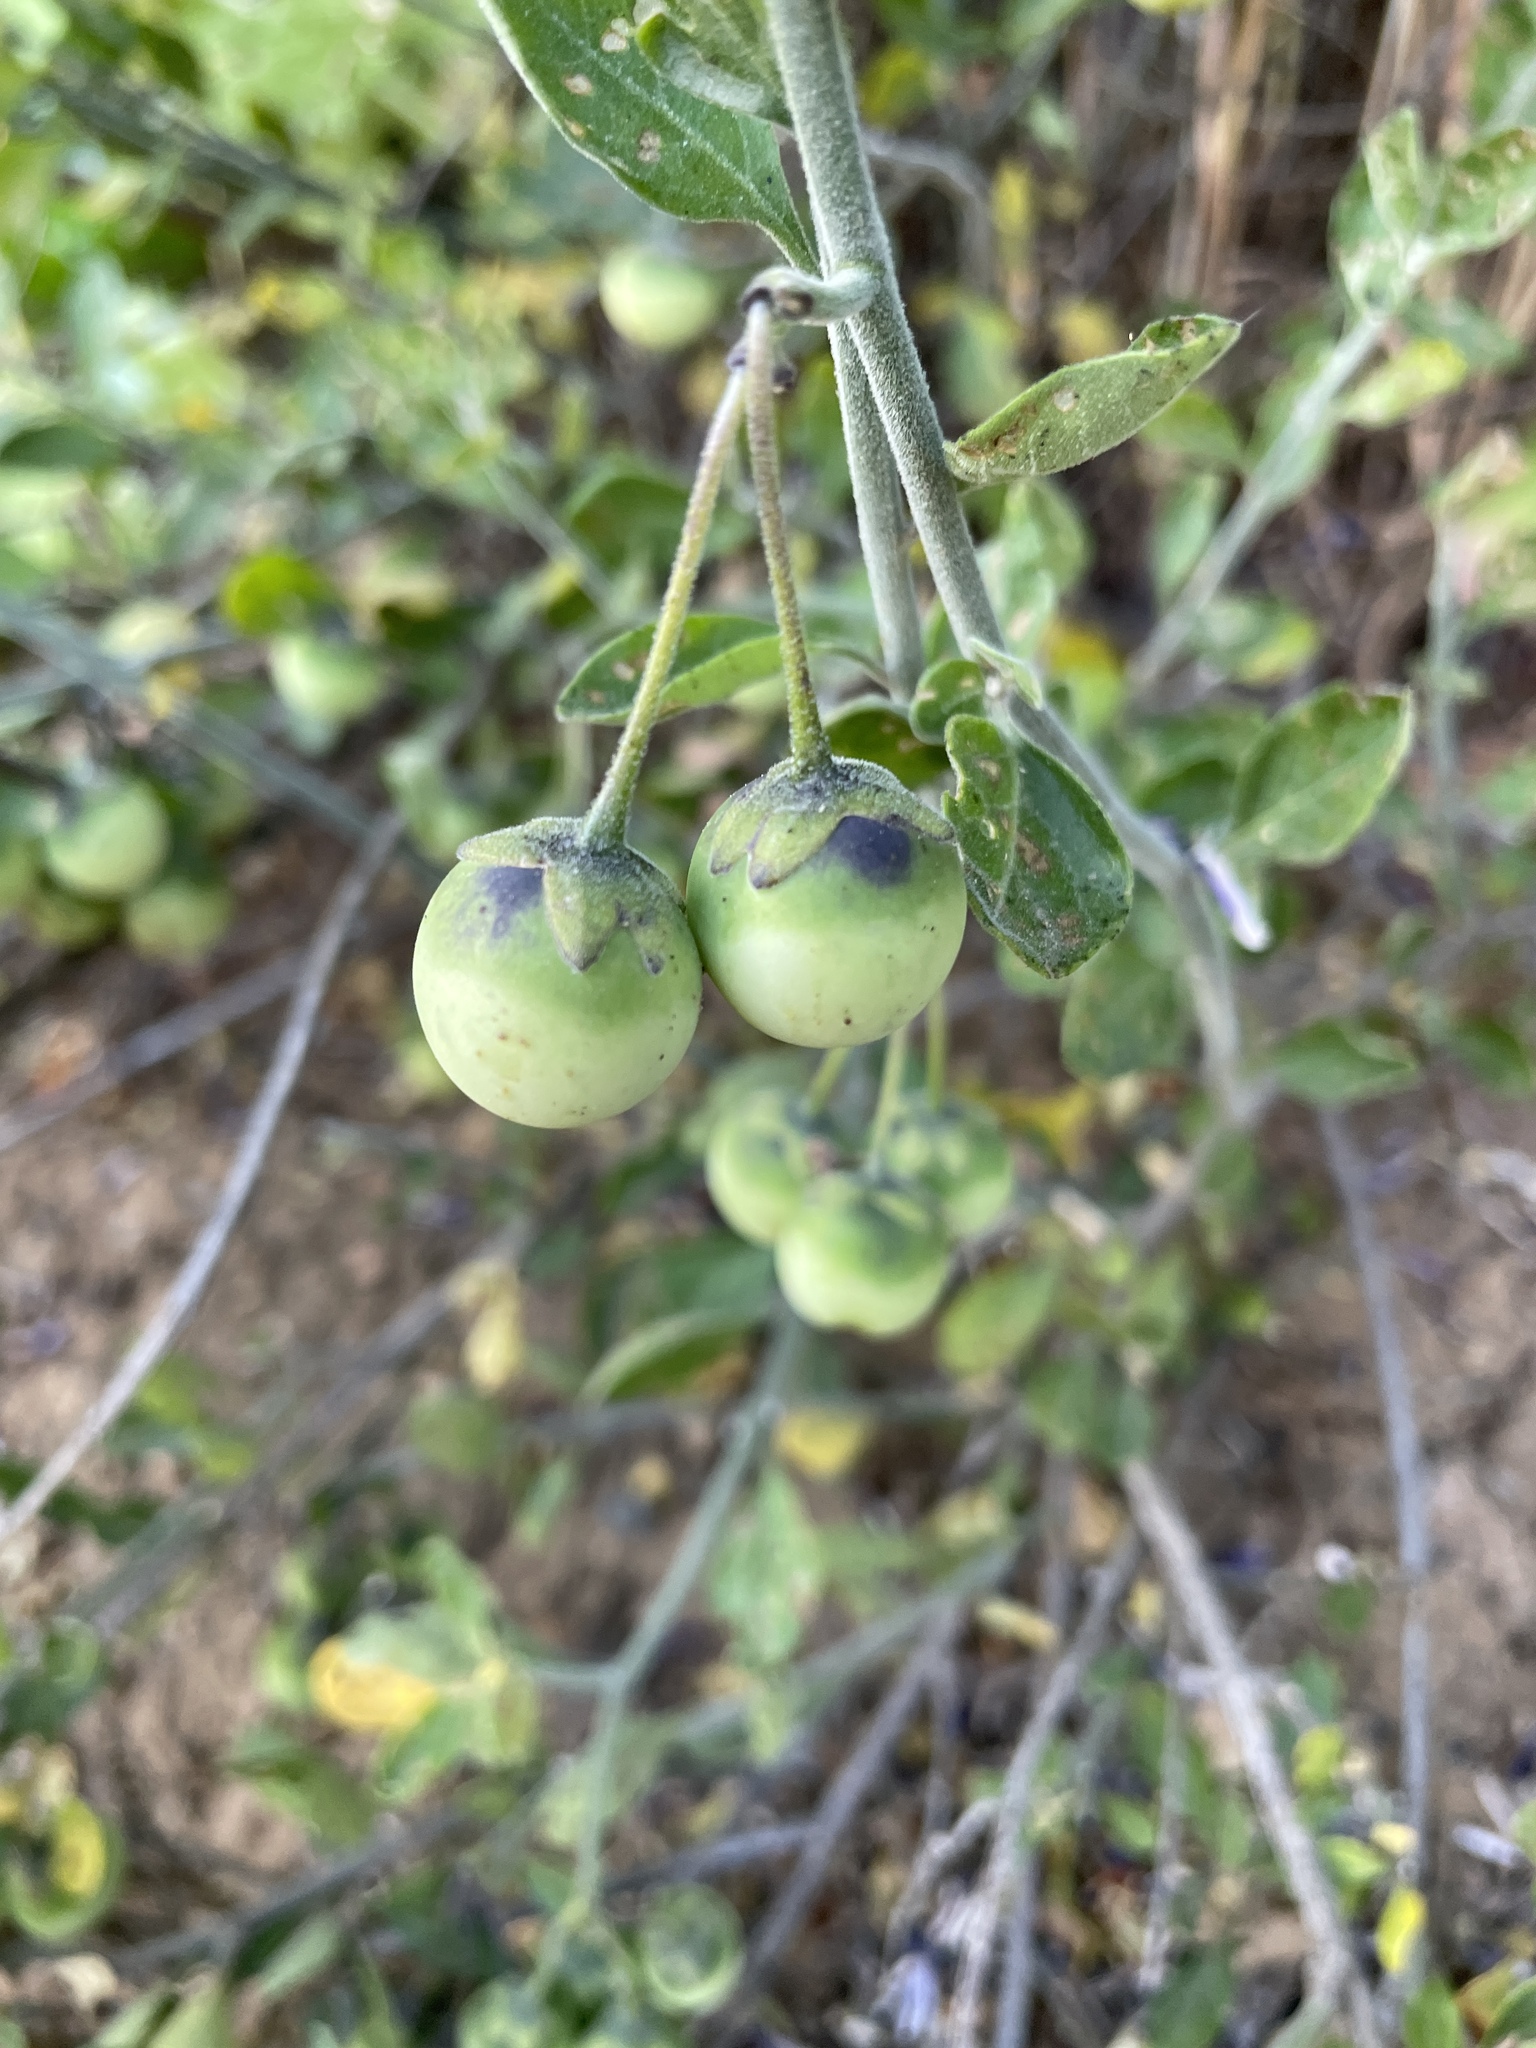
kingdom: Plantae
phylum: Tracheophyta
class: Magnoliopsida
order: Solanales
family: Solanaceae
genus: Solanum
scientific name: Solanum umbelliferum
